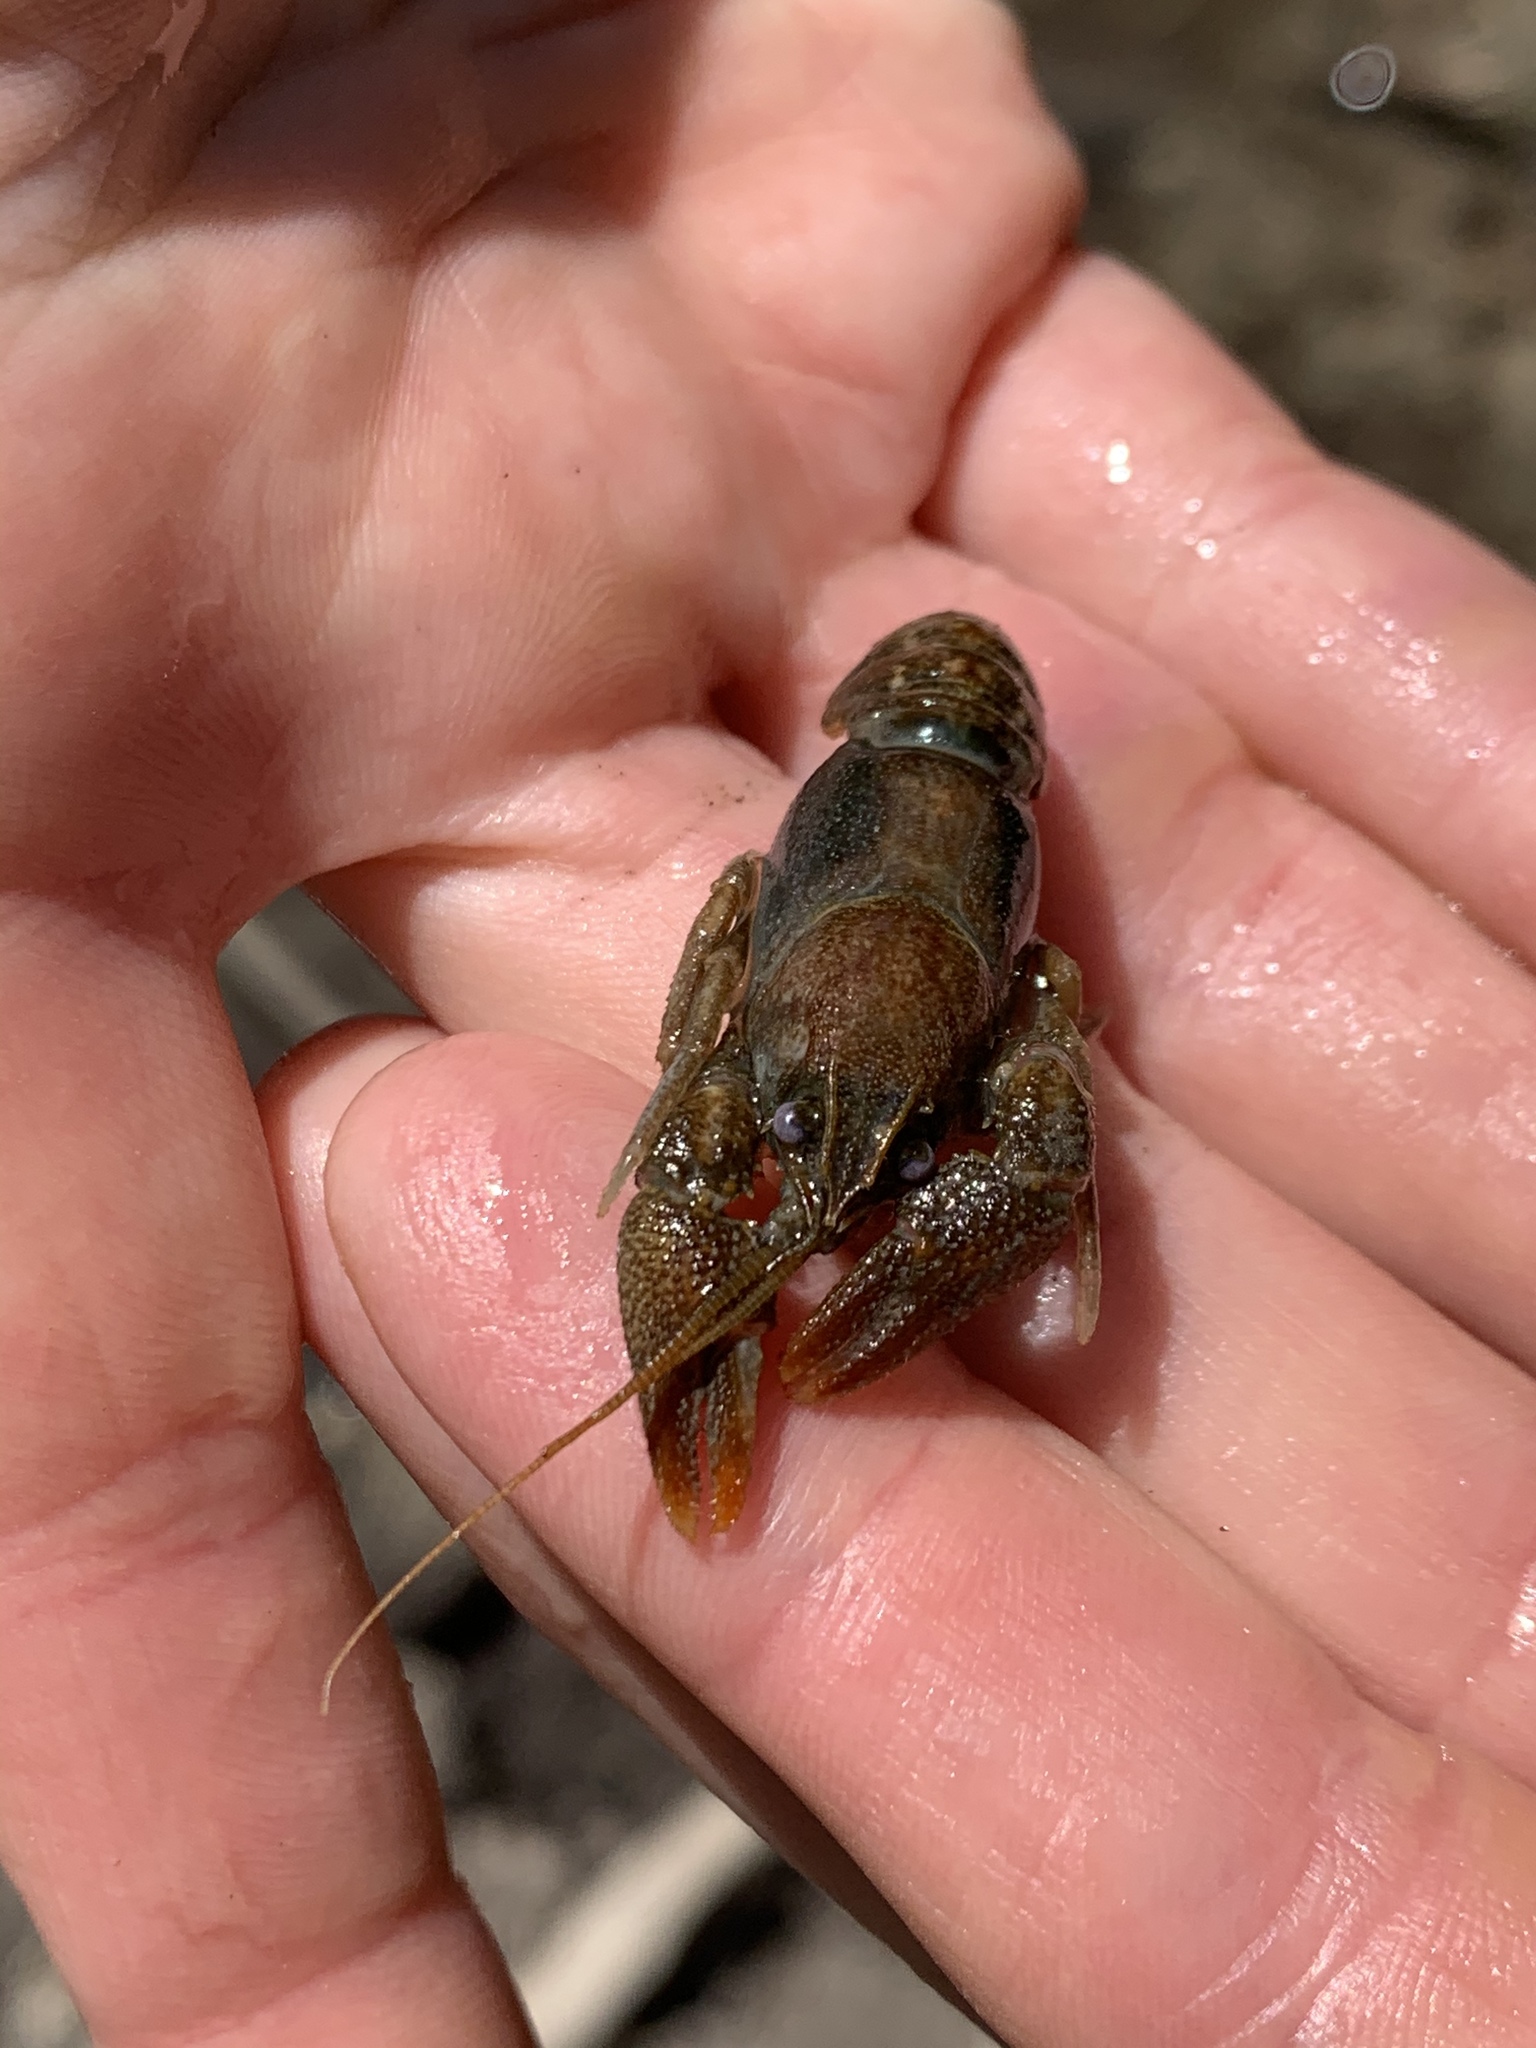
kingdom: Animalia
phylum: Arthropoda
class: Malacostraca
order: Decapoda
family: Astacidae
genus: Austropotamobius
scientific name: Austropotamobius torrentium
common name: Stone crayfish
